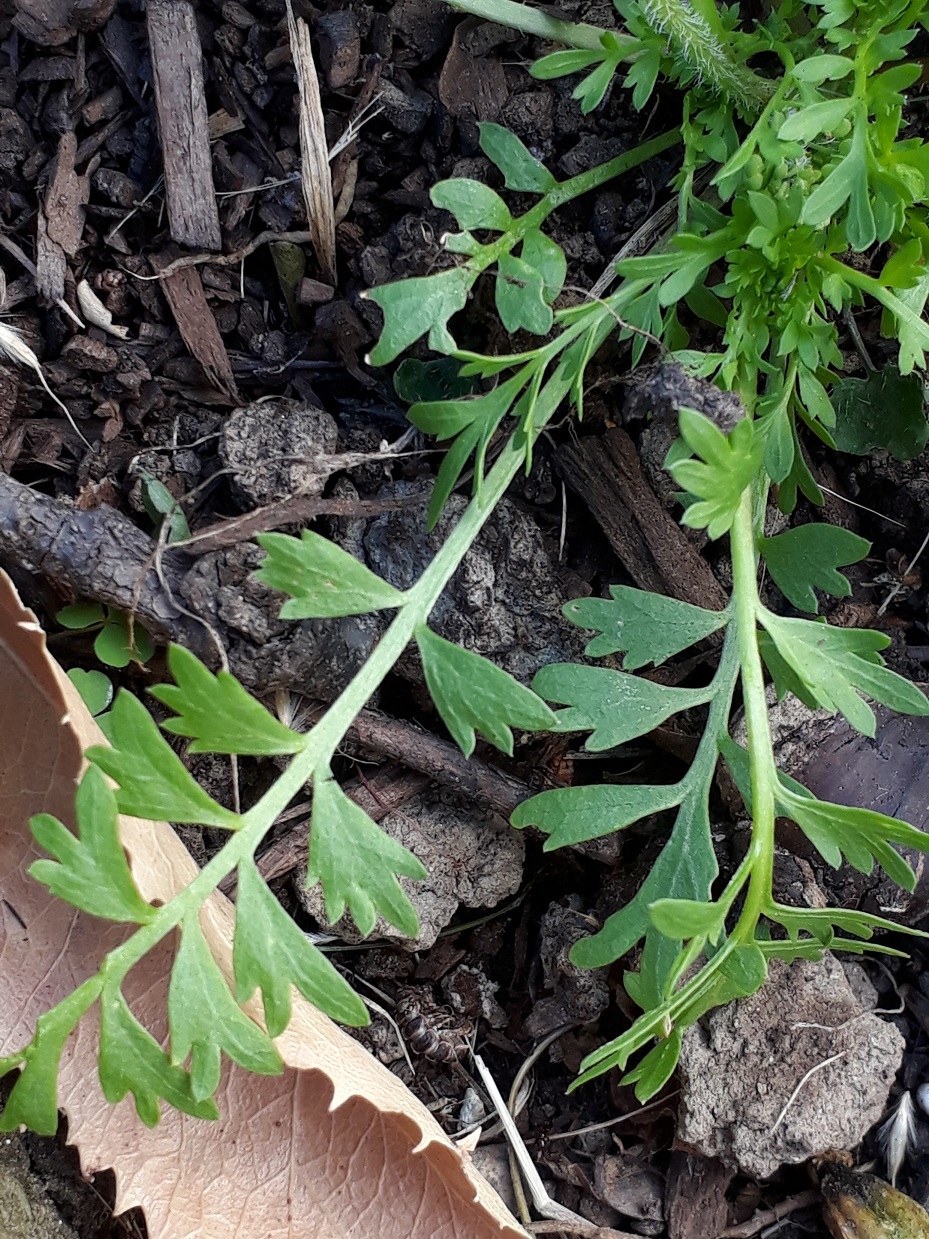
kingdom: Plantae
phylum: Tracheophyta
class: Magnoliopsida
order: Brassicales
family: Brassicaceae
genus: Lepidium
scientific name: Lepidium didymum
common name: Lesser swinecress
